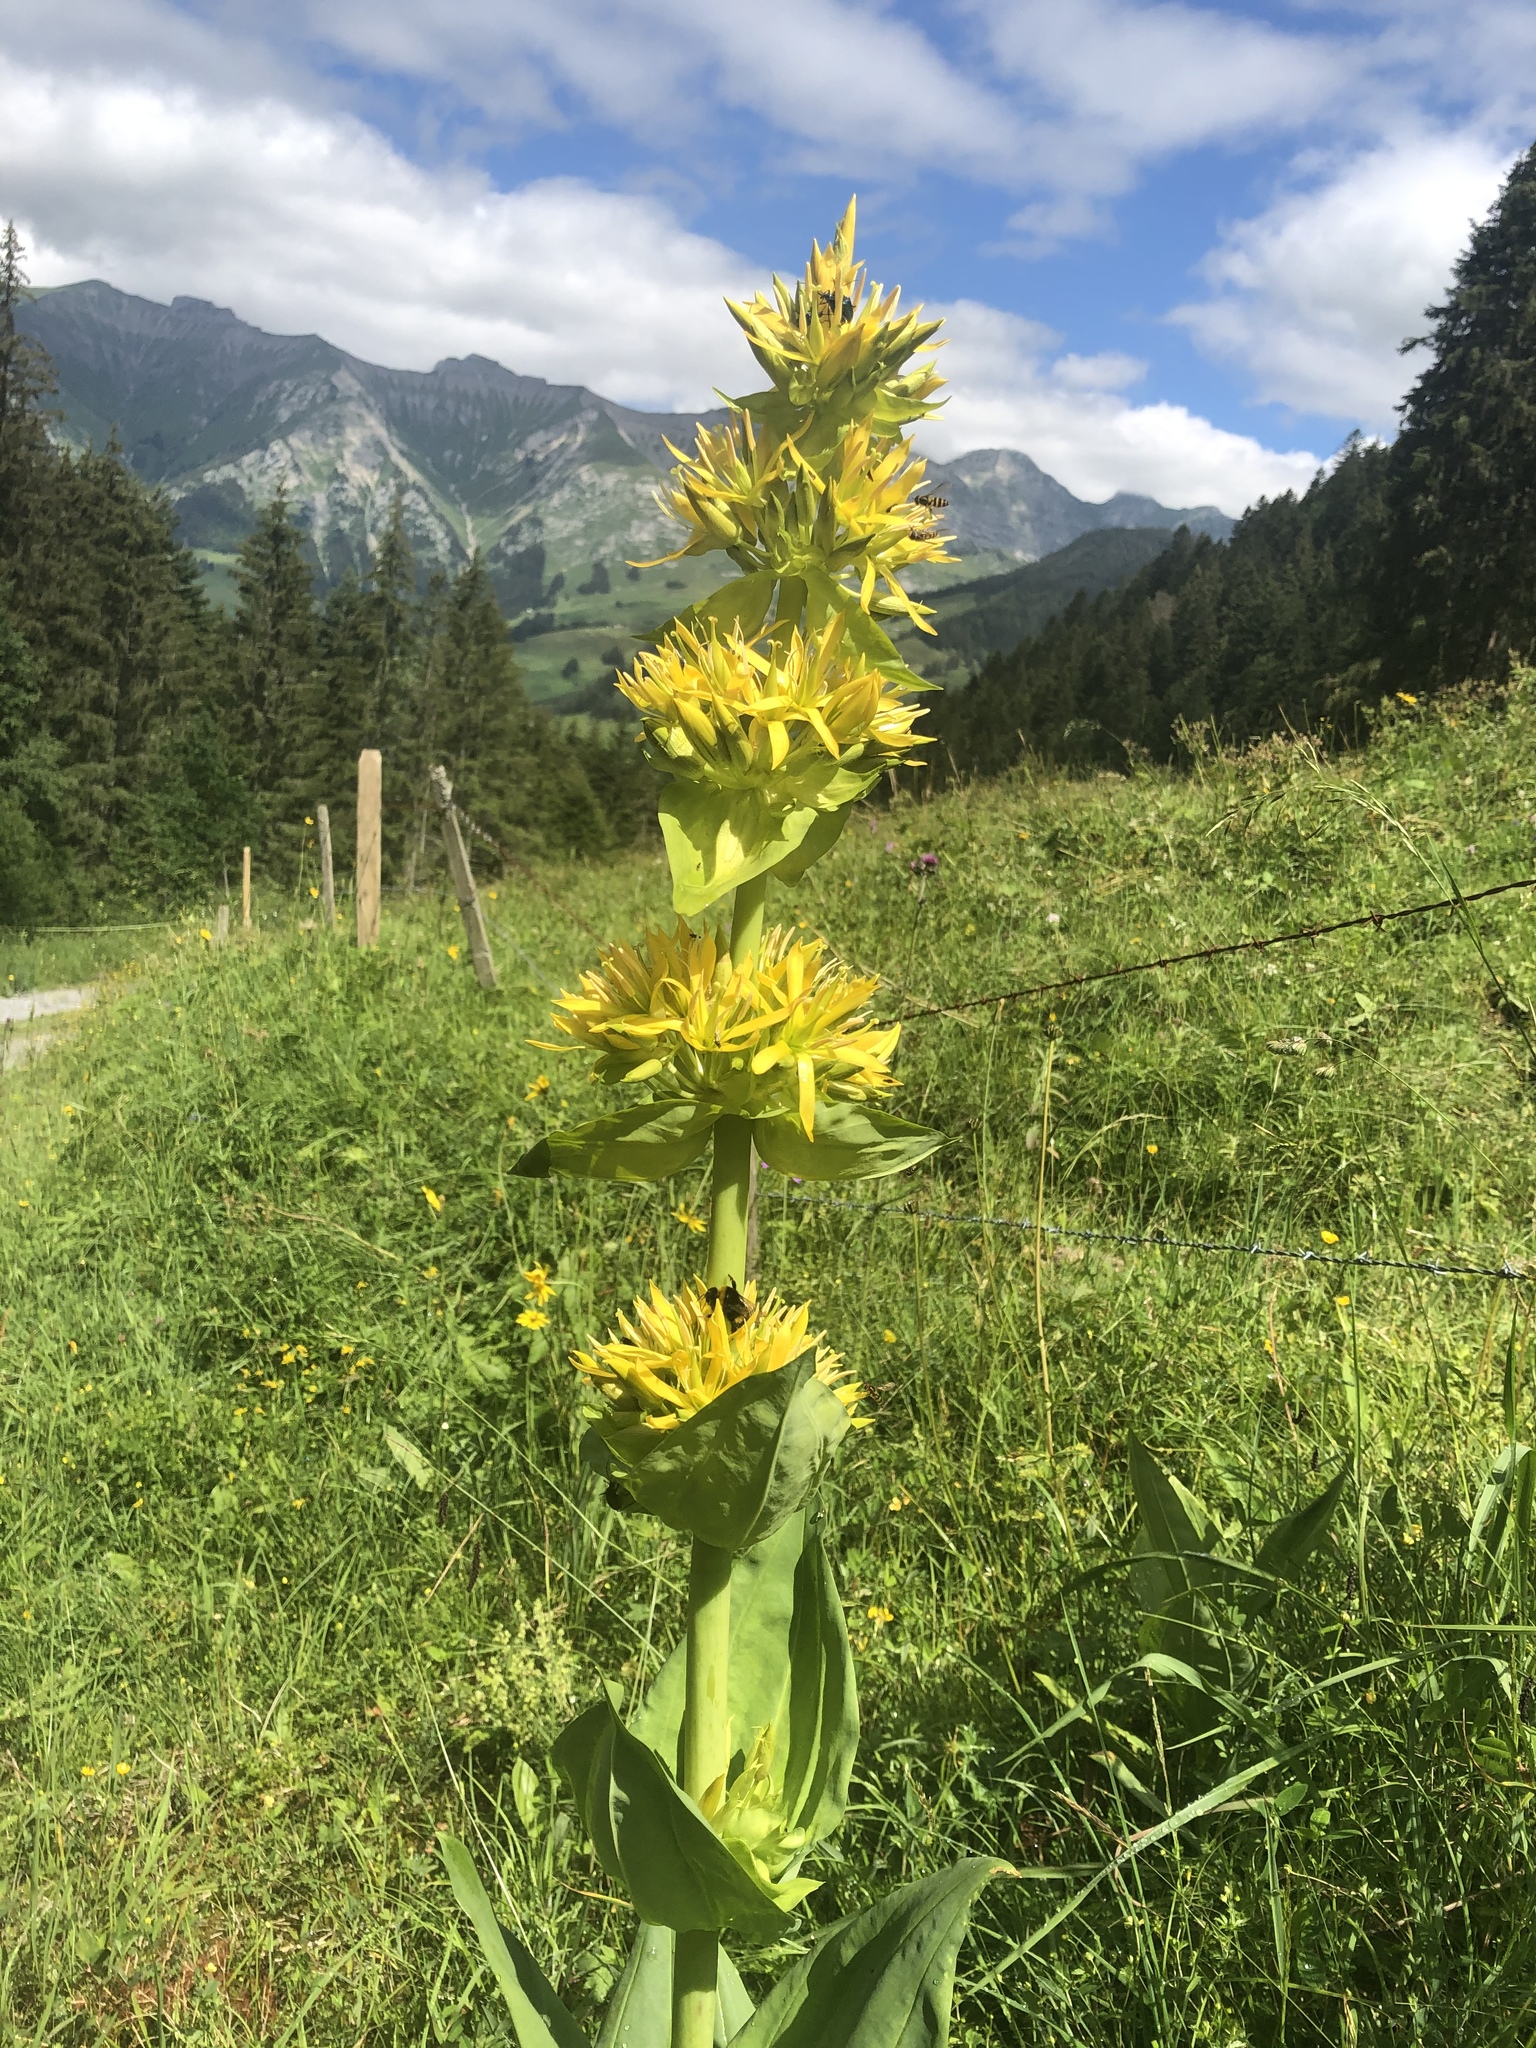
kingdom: Plantae
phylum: Tracheophyta
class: Magnoliopsida
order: Gentianales
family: Gentianaceae
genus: Gentiana
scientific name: Gentiana lutea
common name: Great yellow gentian
